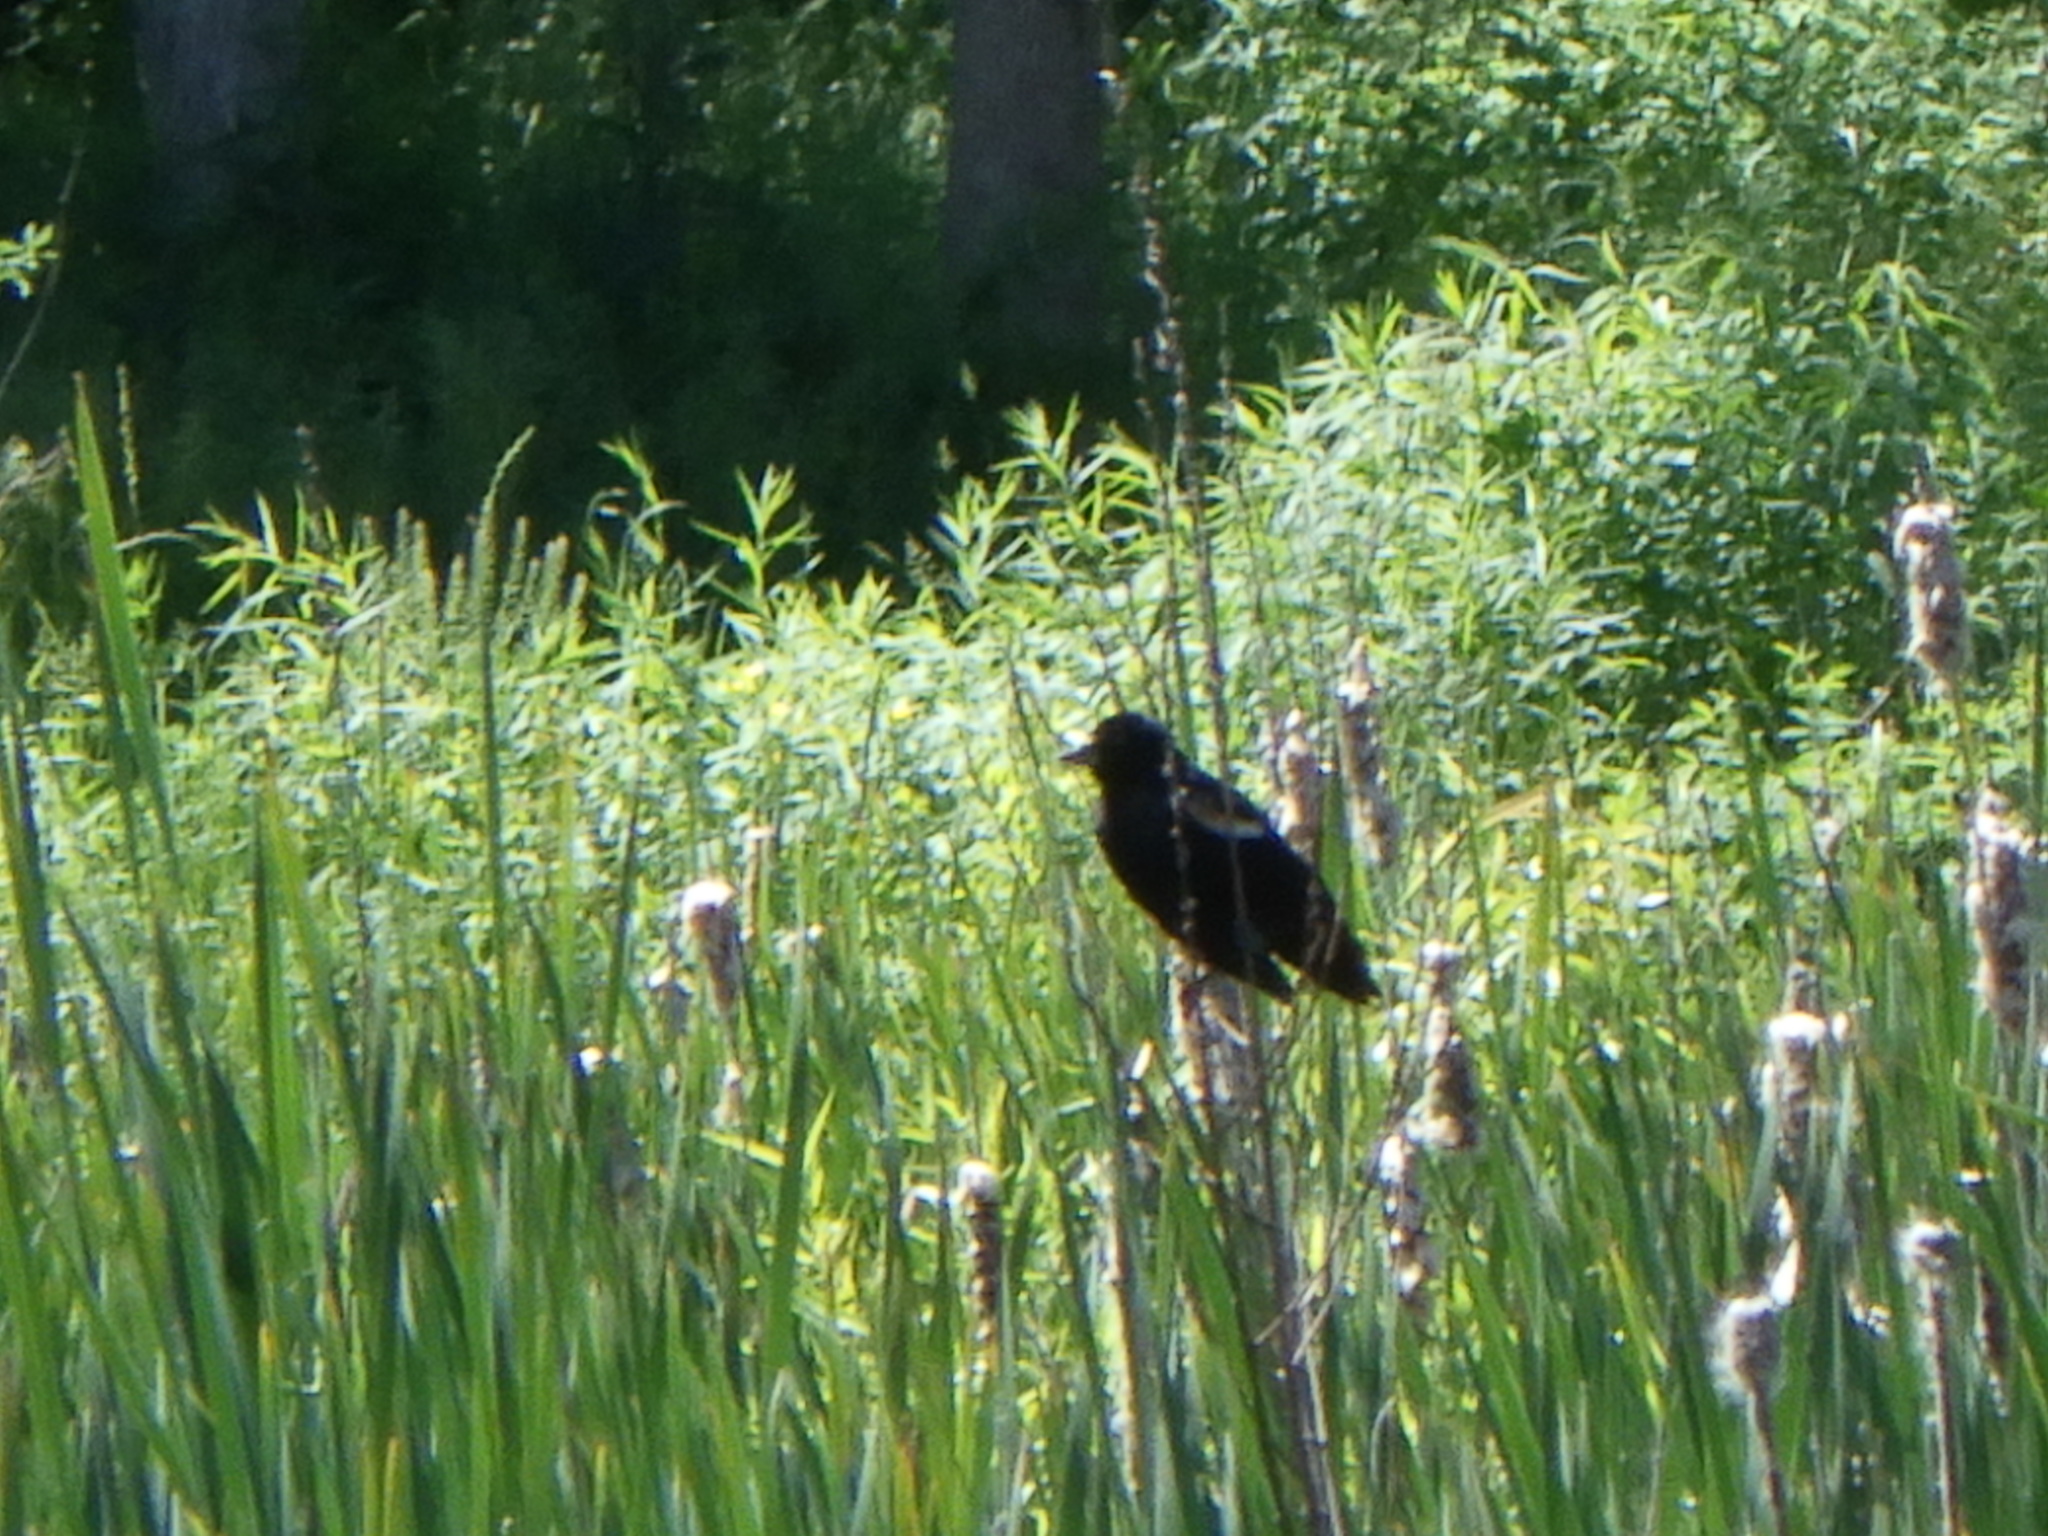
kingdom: Animalia
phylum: Chordata
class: Aves
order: Passeriformes
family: Icteridae
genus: Agelaius
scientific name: Agelaius phoeniceus
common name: Red-winged blackbird
